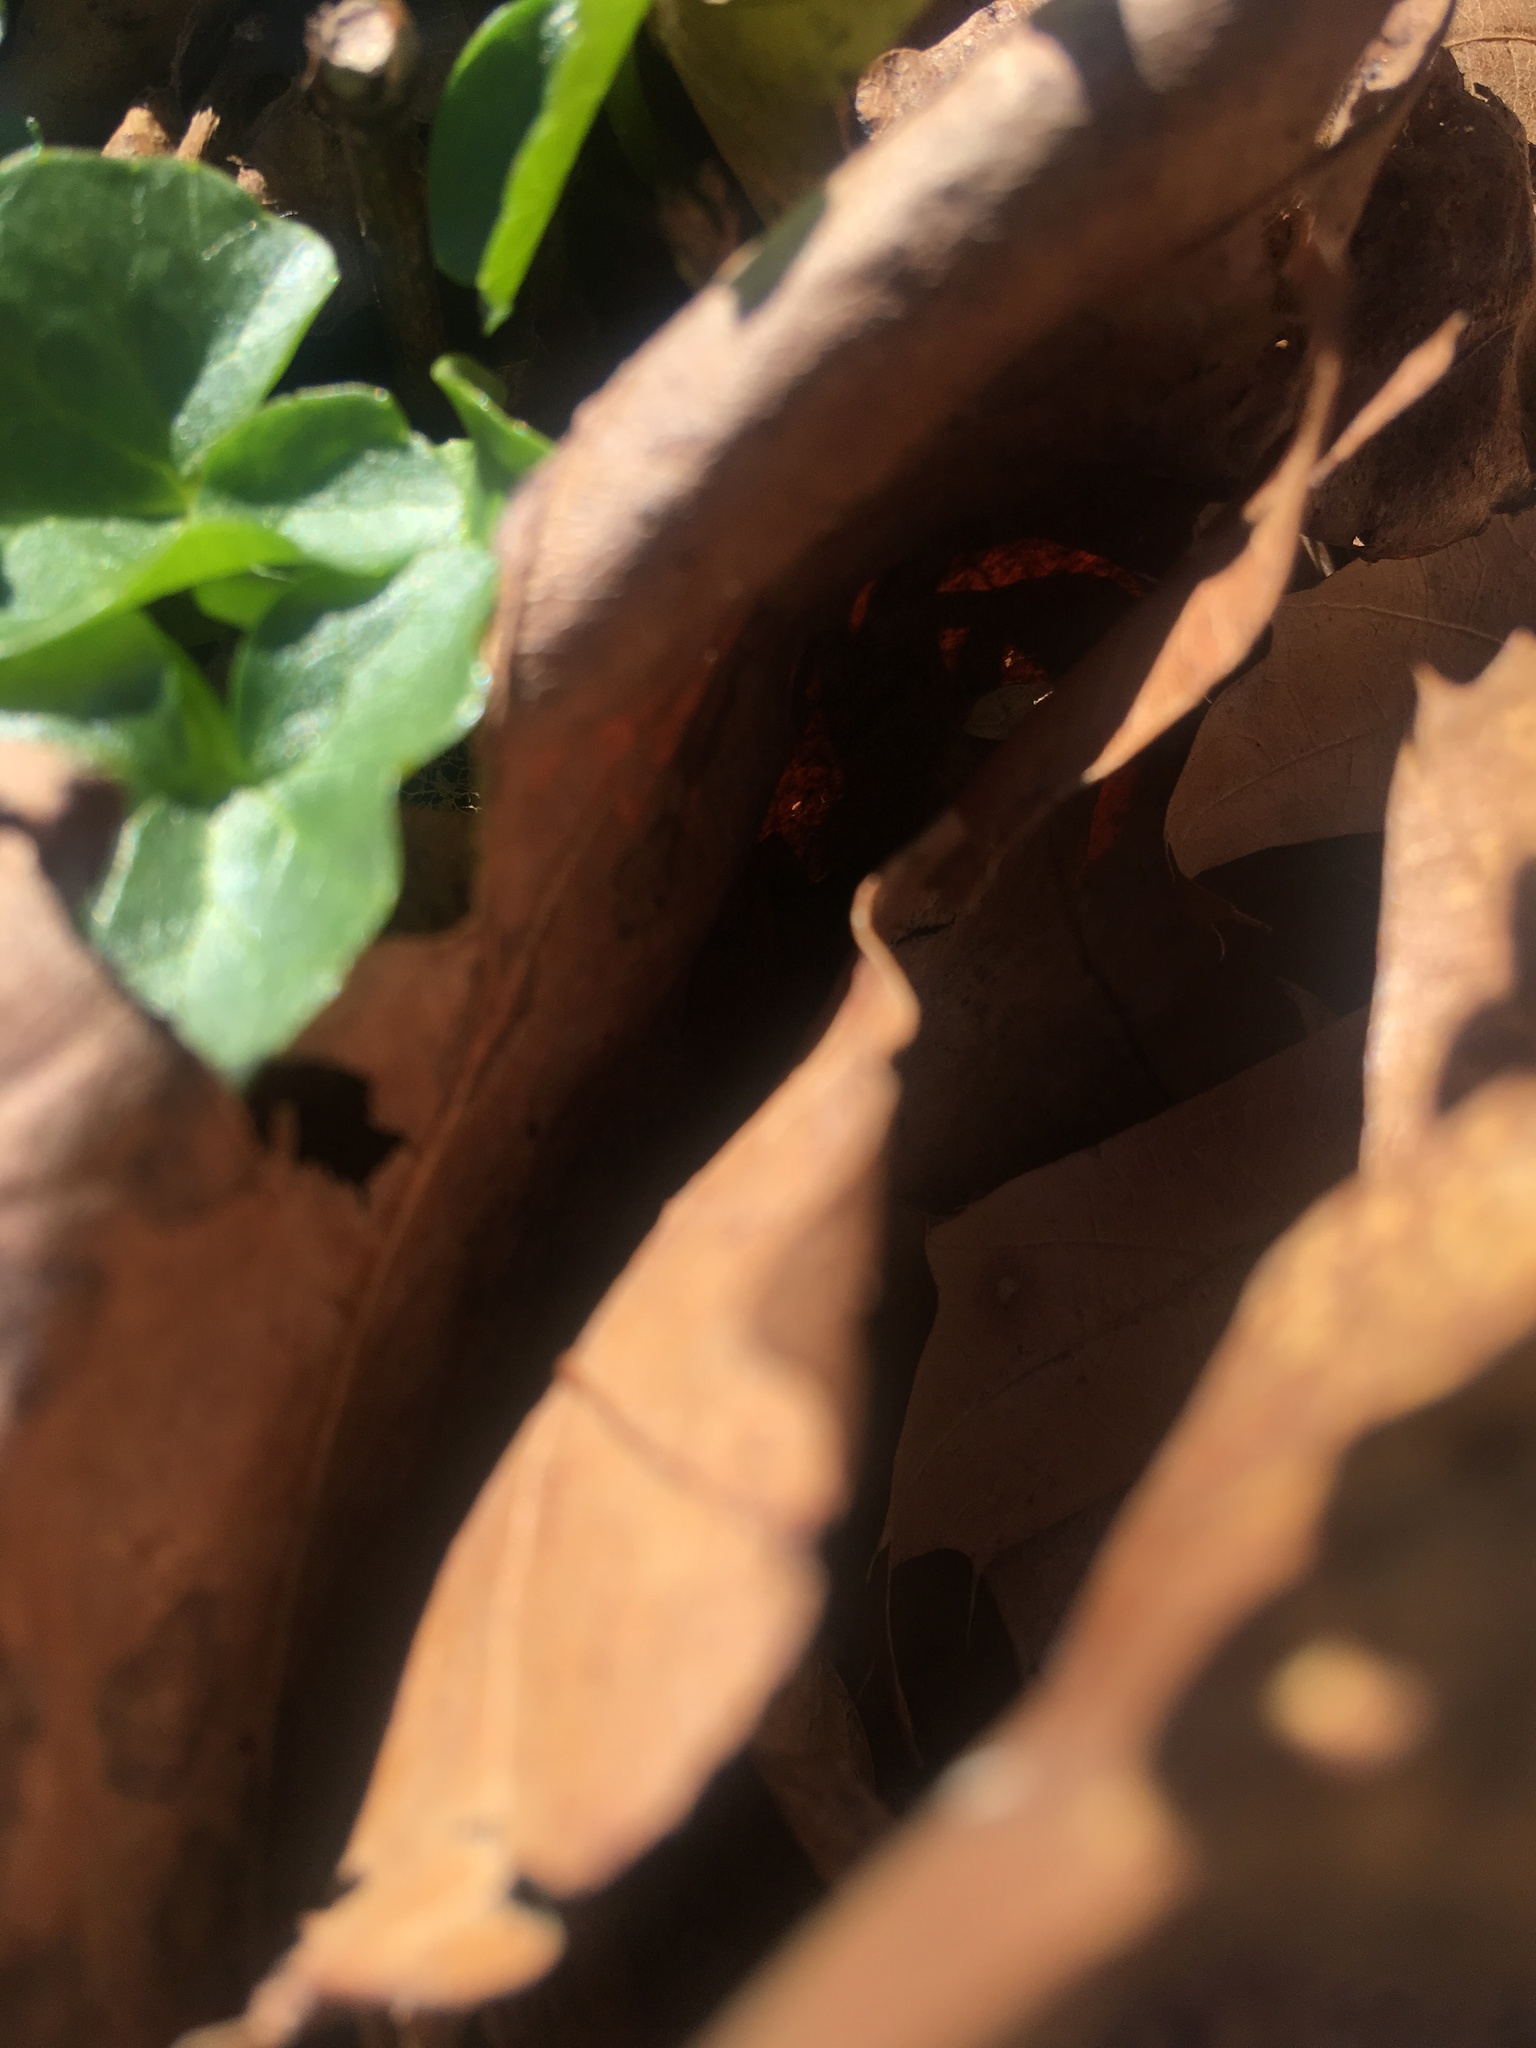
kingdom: Plantae
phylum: Tracheophyta
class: Magnoliopsida
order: Ranunculales
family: Ranunculaceae
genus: Ficaria
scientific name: Ficaria verna
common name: Lesser celandine
